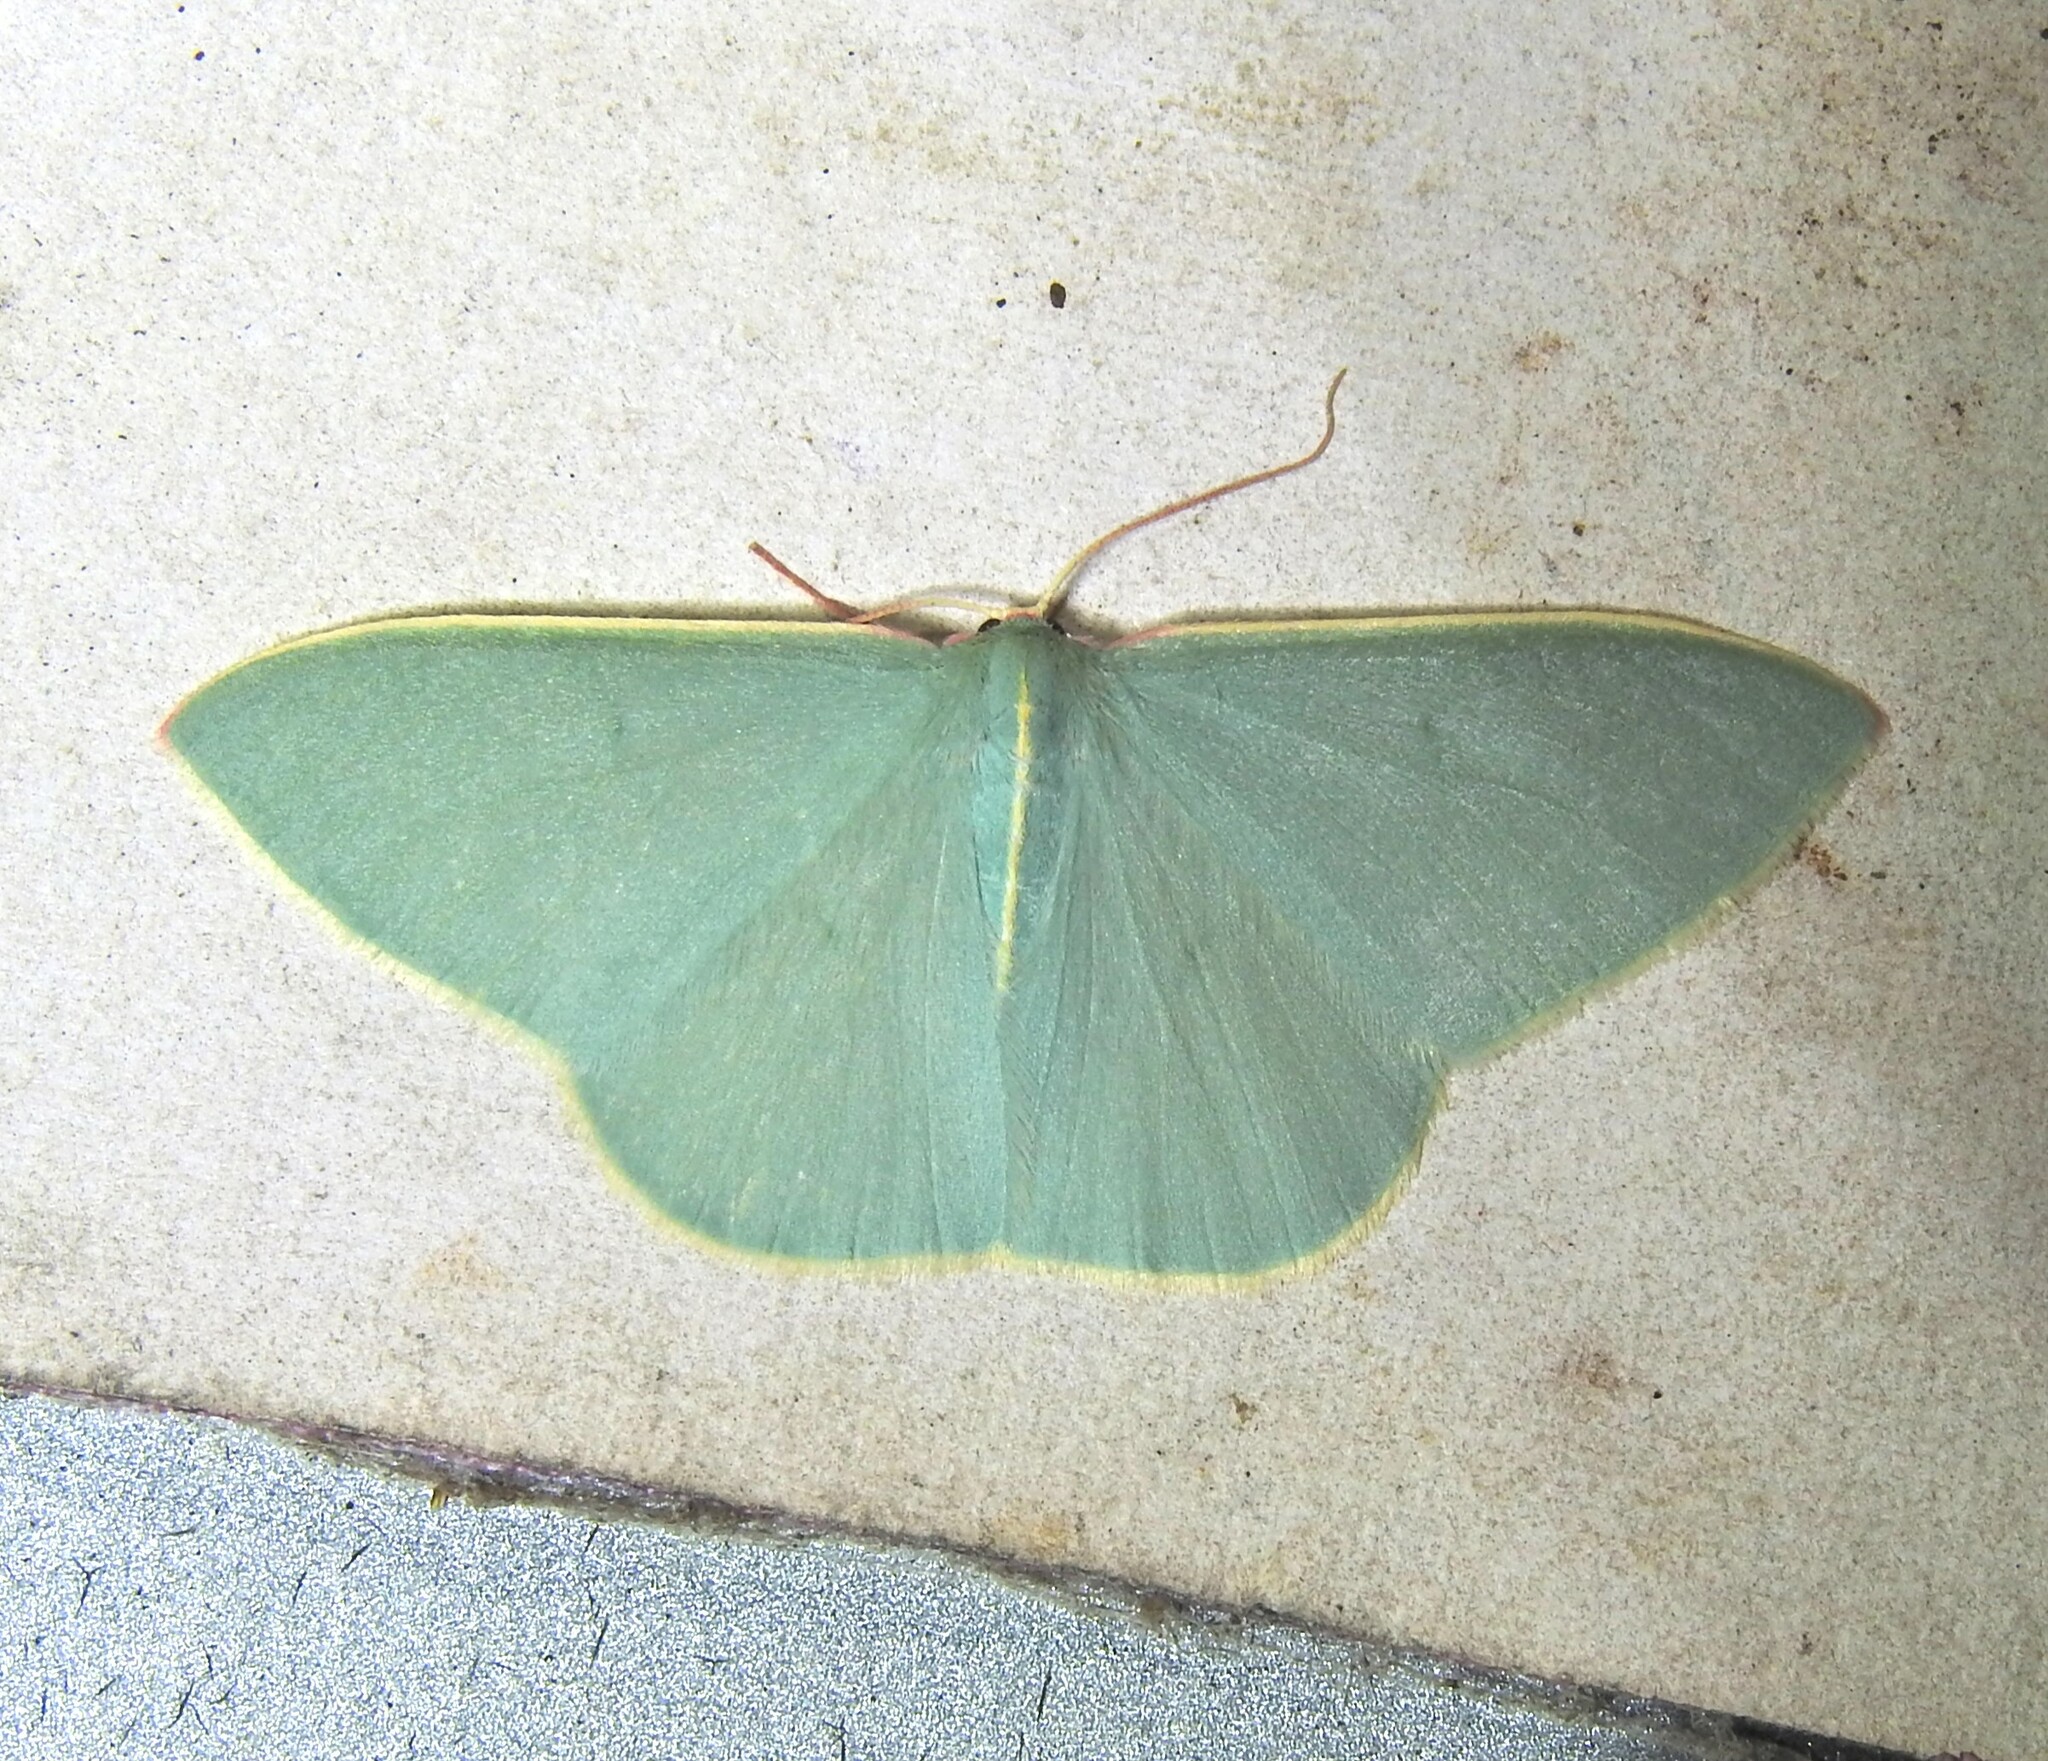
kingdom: Animalia
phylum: Arthropoda
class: Insecta
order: Lepidoptera
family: Geometridae
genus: Chlorocoma
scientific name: Chlorocoma assimilis
